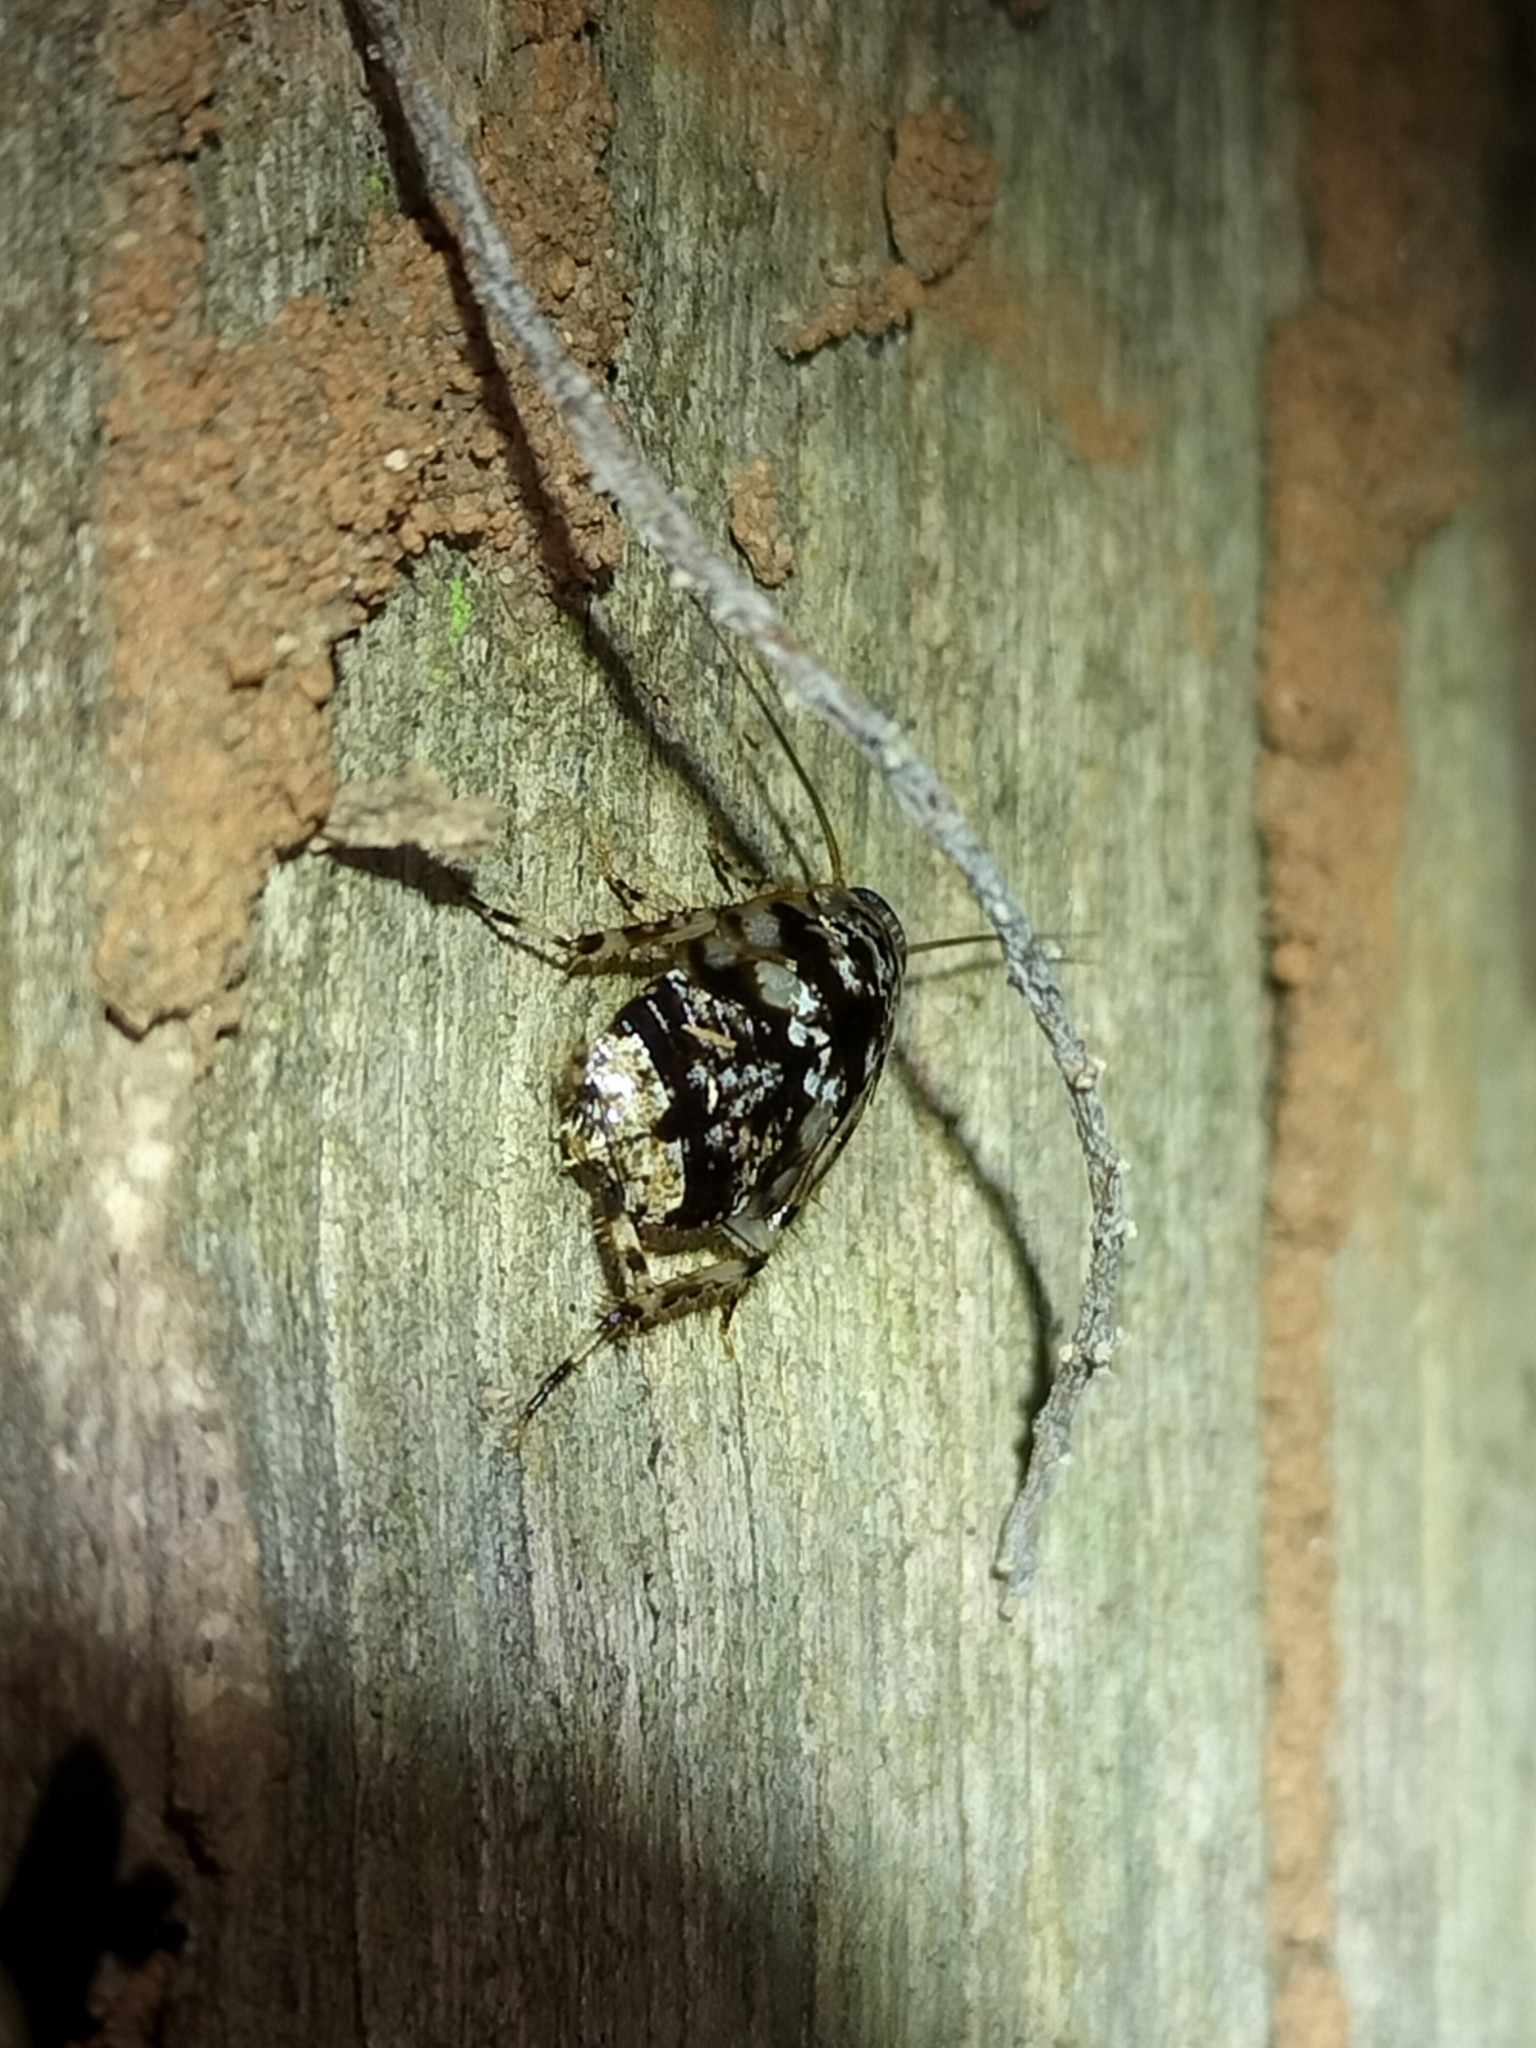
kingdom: Animalia
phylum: Arthropoda
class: Insecta
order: Blattodea
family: Ectobiidae
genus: Allacta
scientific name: Allacta australiensis
